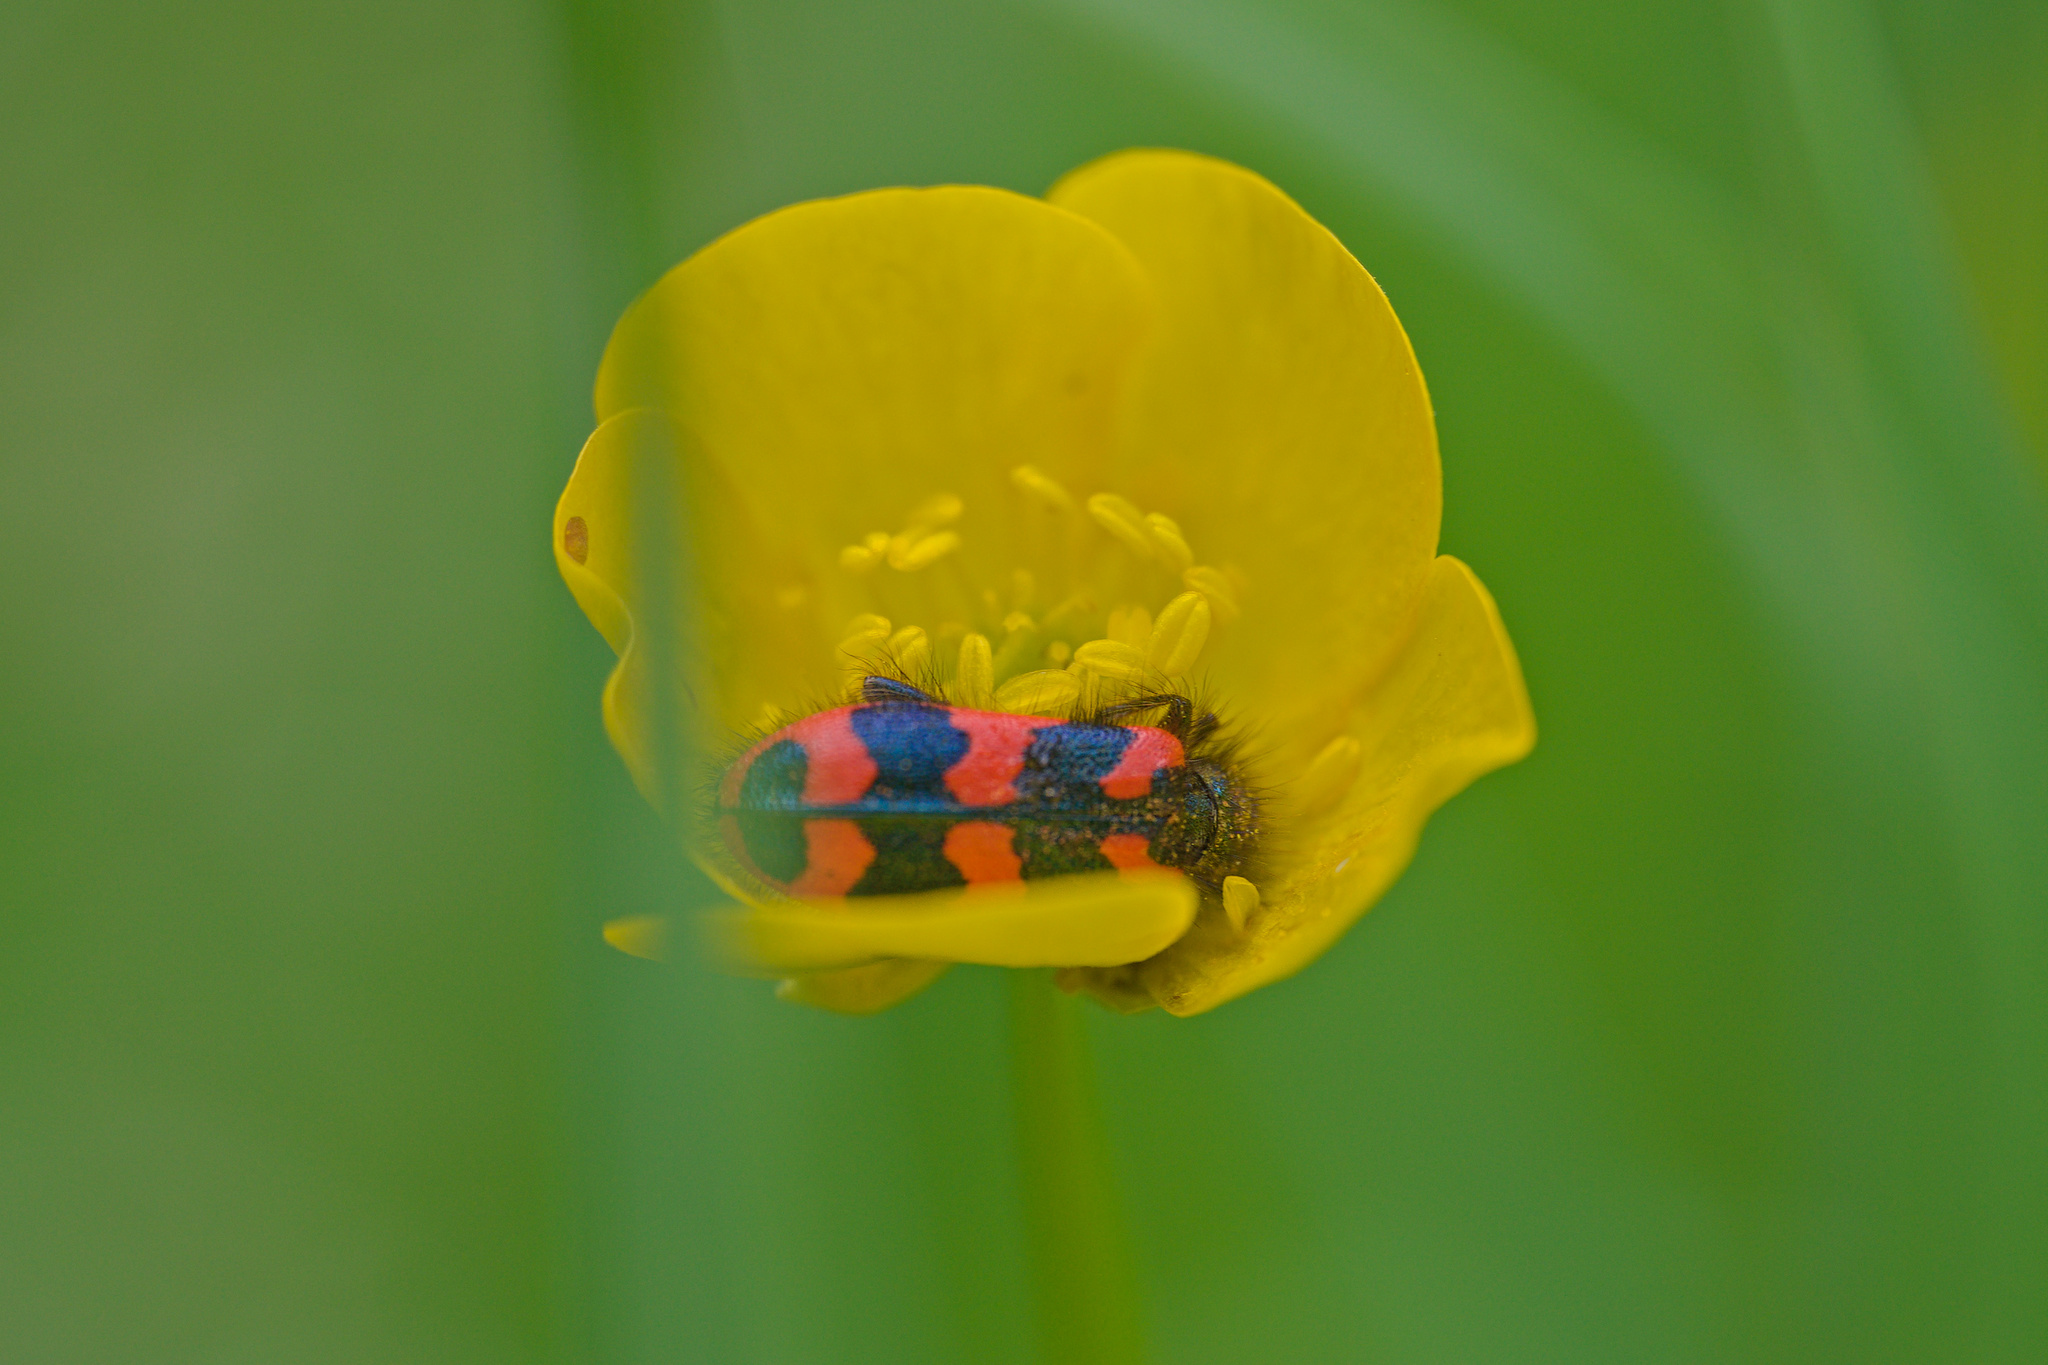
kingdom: Animalia
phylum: Arthropoda
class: Insecta
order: Coleoptera
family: Cleridae
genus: Trichodes
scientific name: Trichodes alvearius
